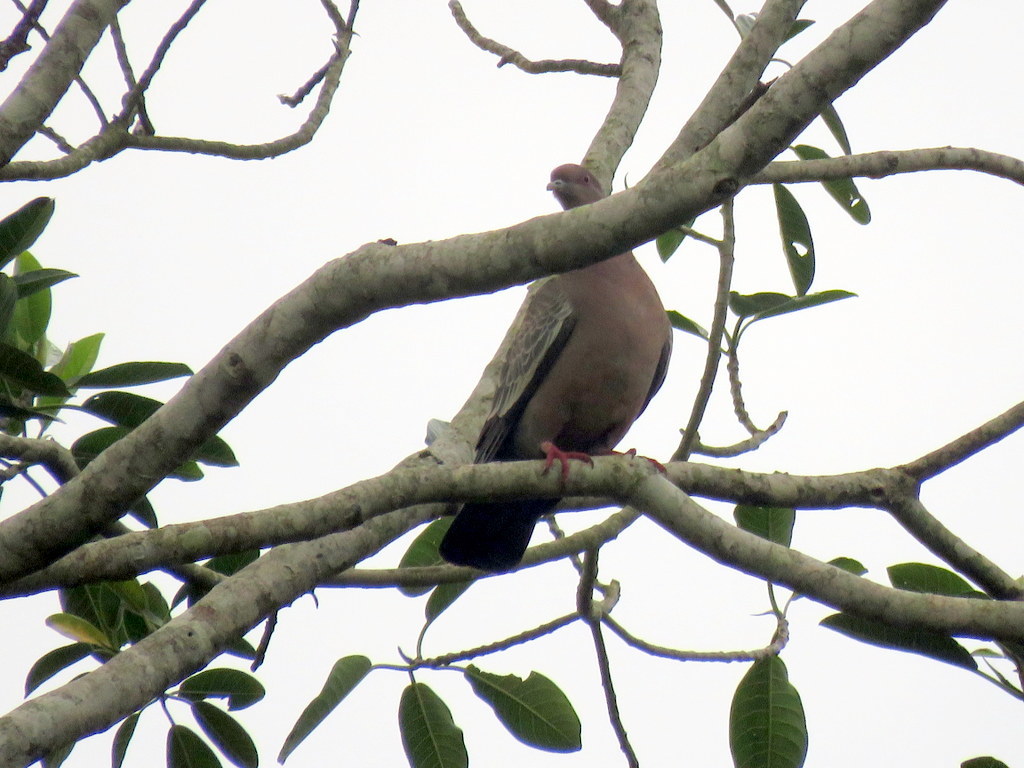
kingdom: Animalia
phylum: Chordata
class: Aves
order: Columbiformes
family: Columbidae
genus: Patagioenas
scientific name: Patagioenas picazuro
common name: Picazuro pigeon
